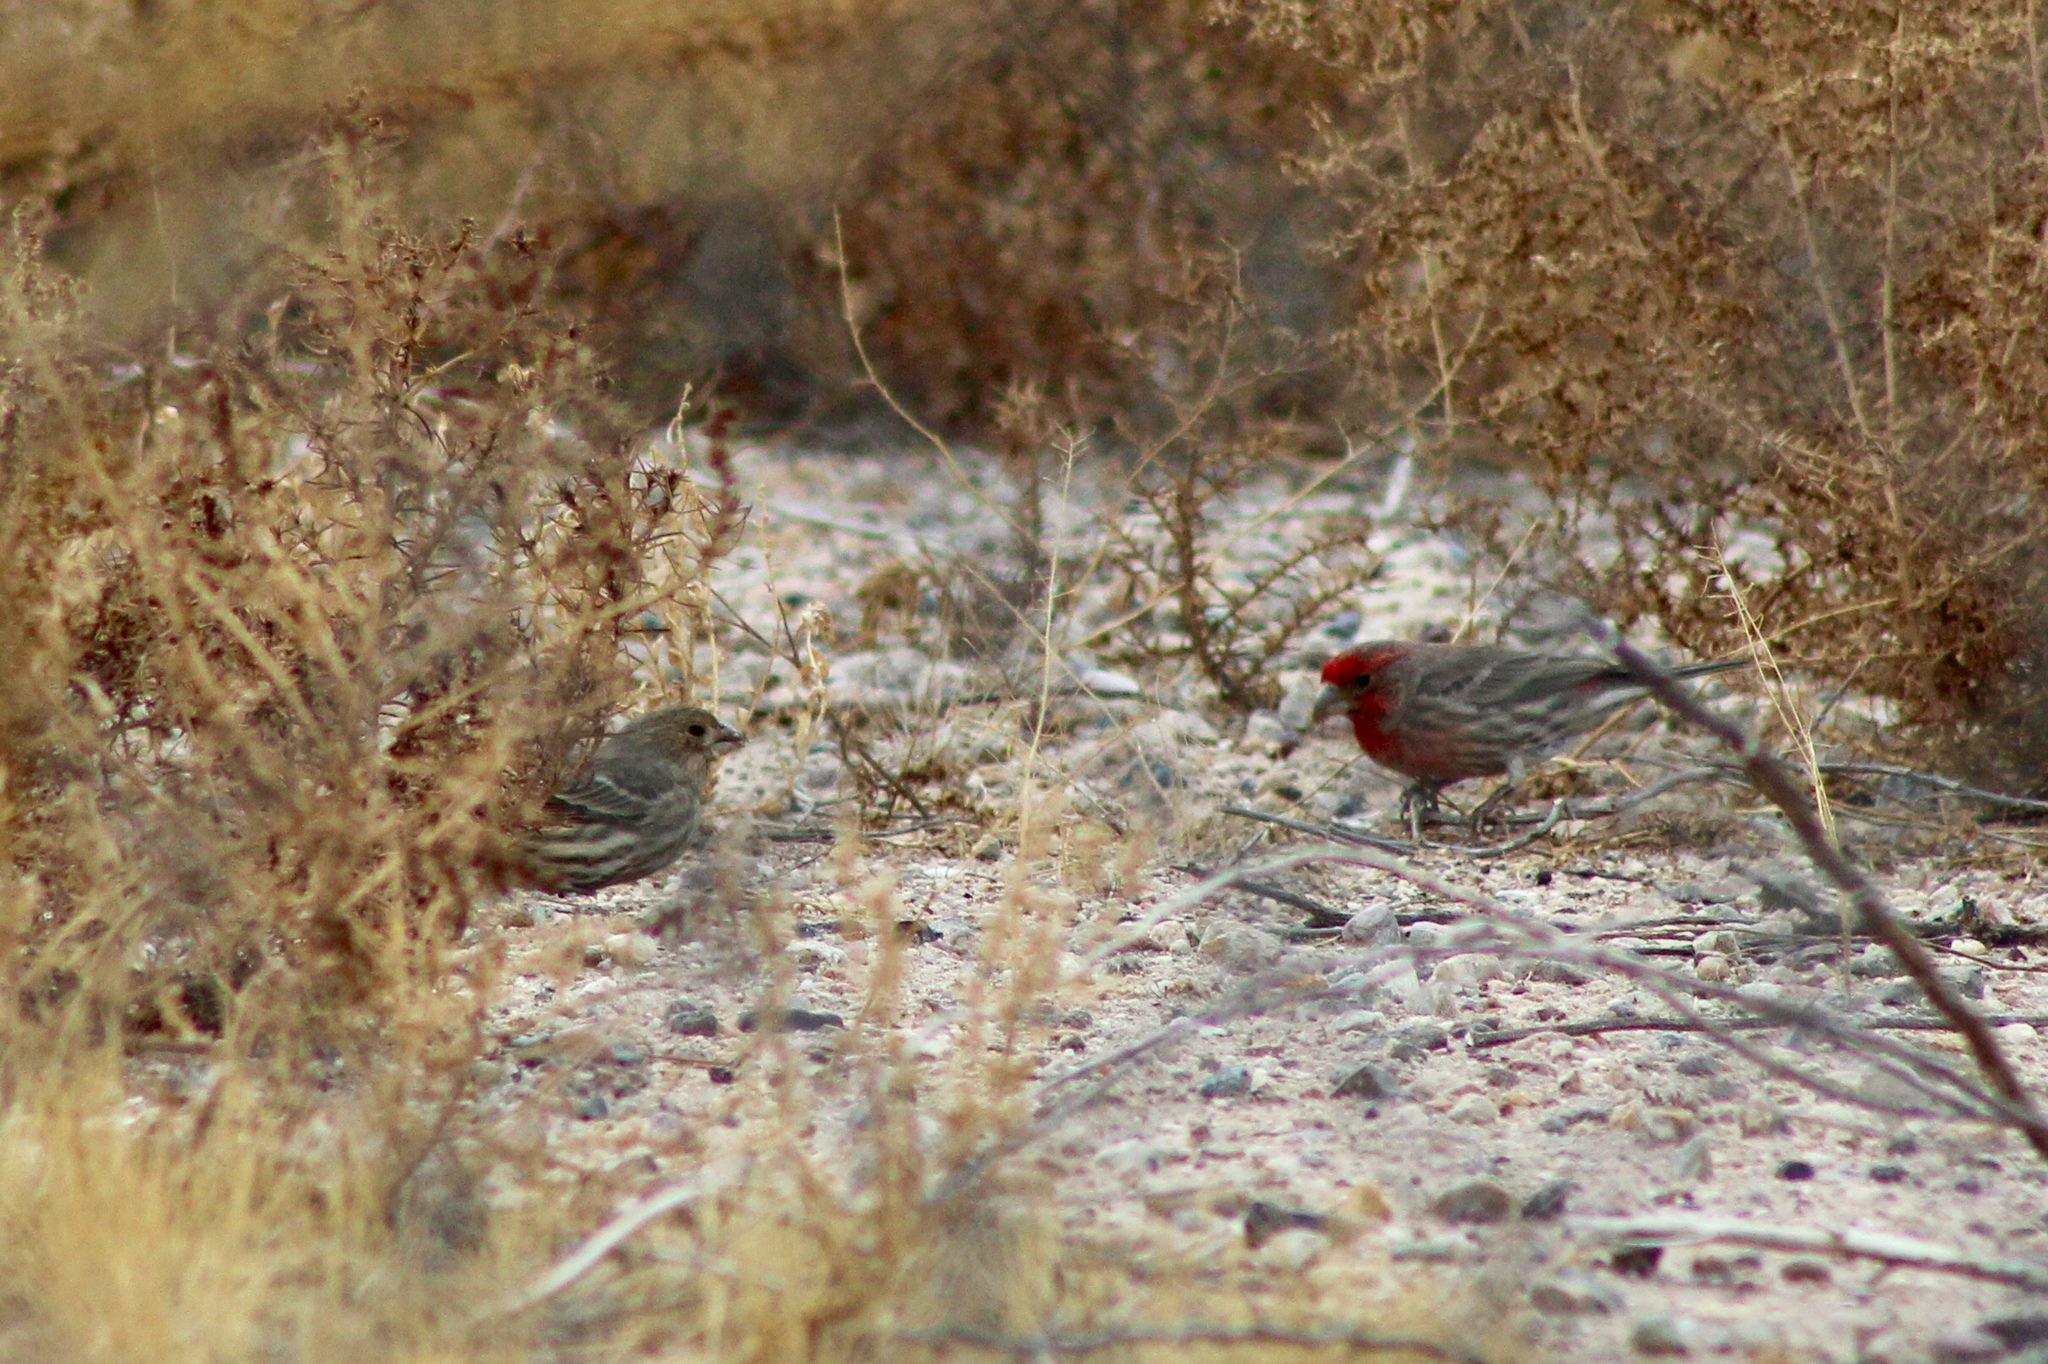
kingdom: Animalia
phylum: Chordata
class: Aves
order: Passeriformes
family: Fringillidae
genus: Haemorhous
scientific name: Haemorhous mexicanus
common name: House finch
